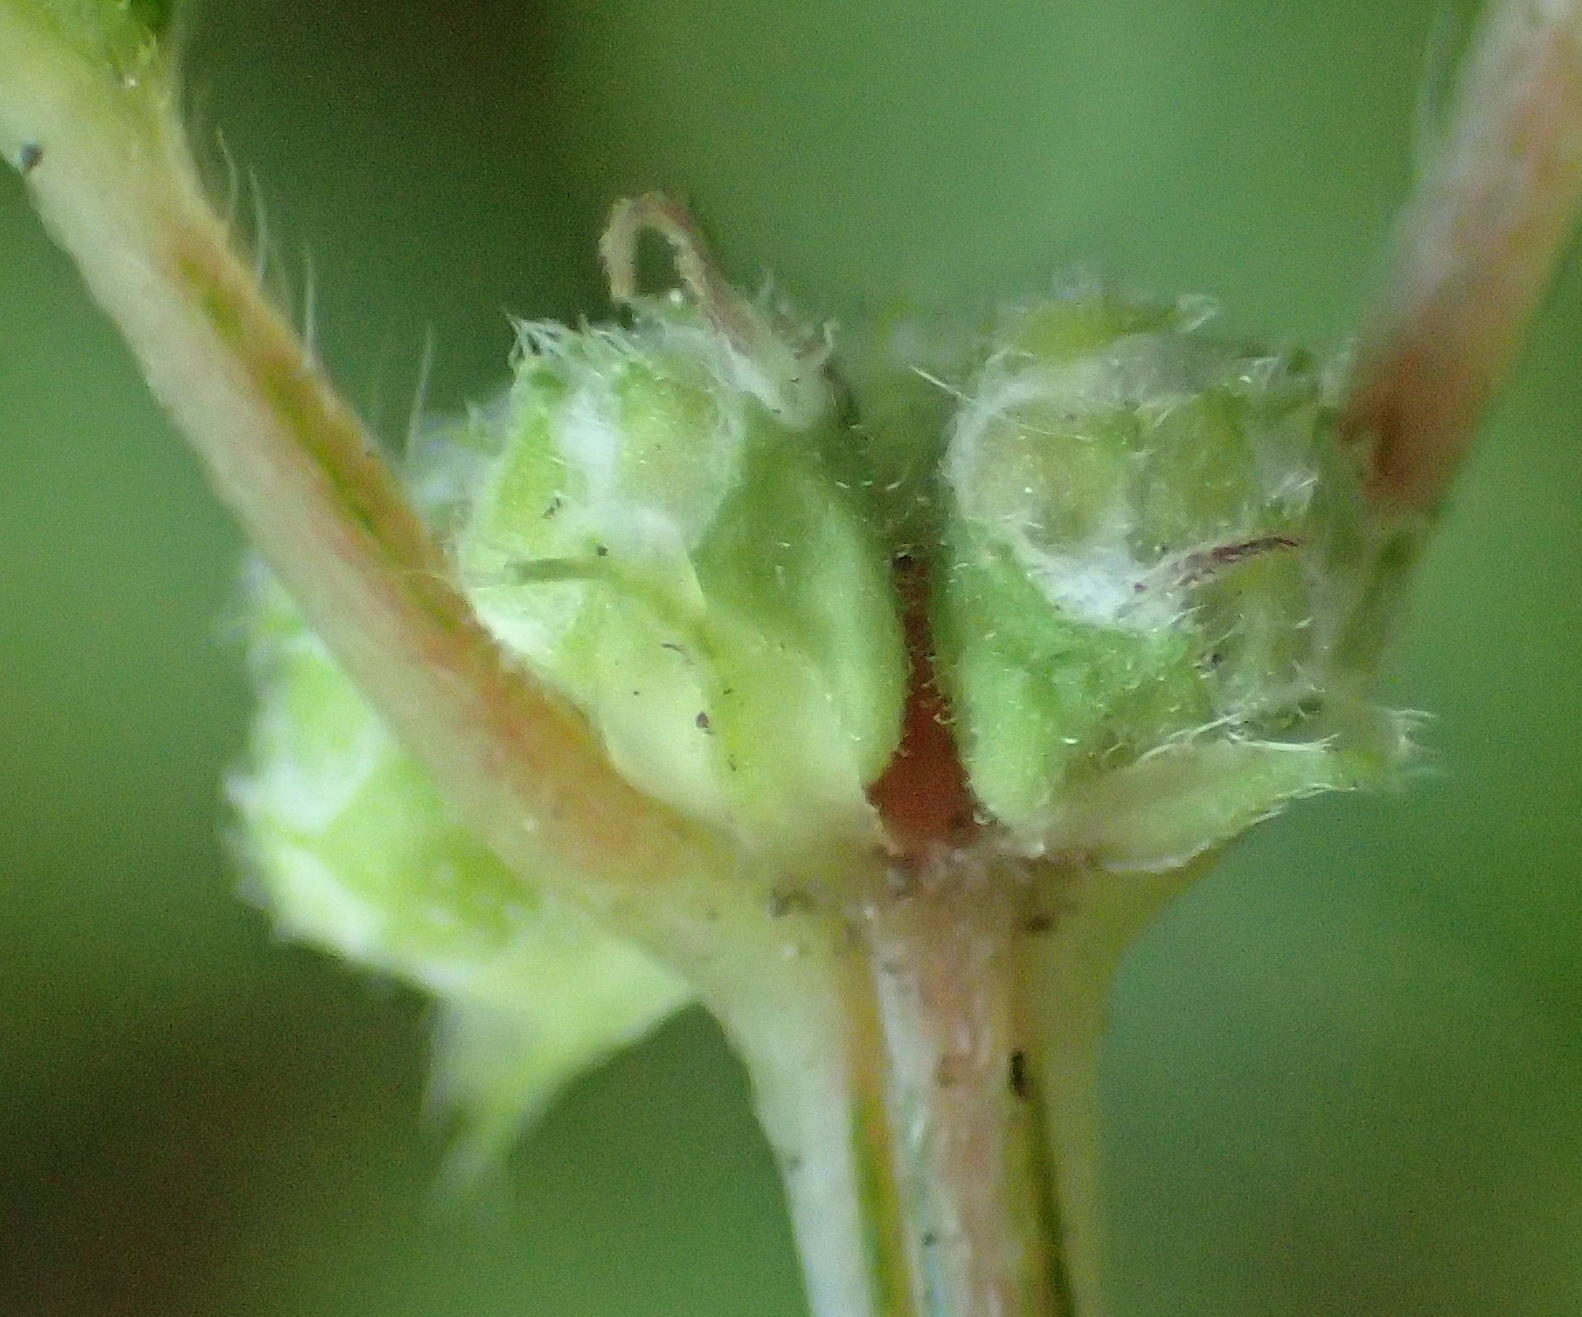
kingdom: Plantae
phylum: Tracheophyta
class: Magnoliopsida
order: Rosales
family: Urticaceae
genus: Droguetia
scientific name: Droguetia iners
